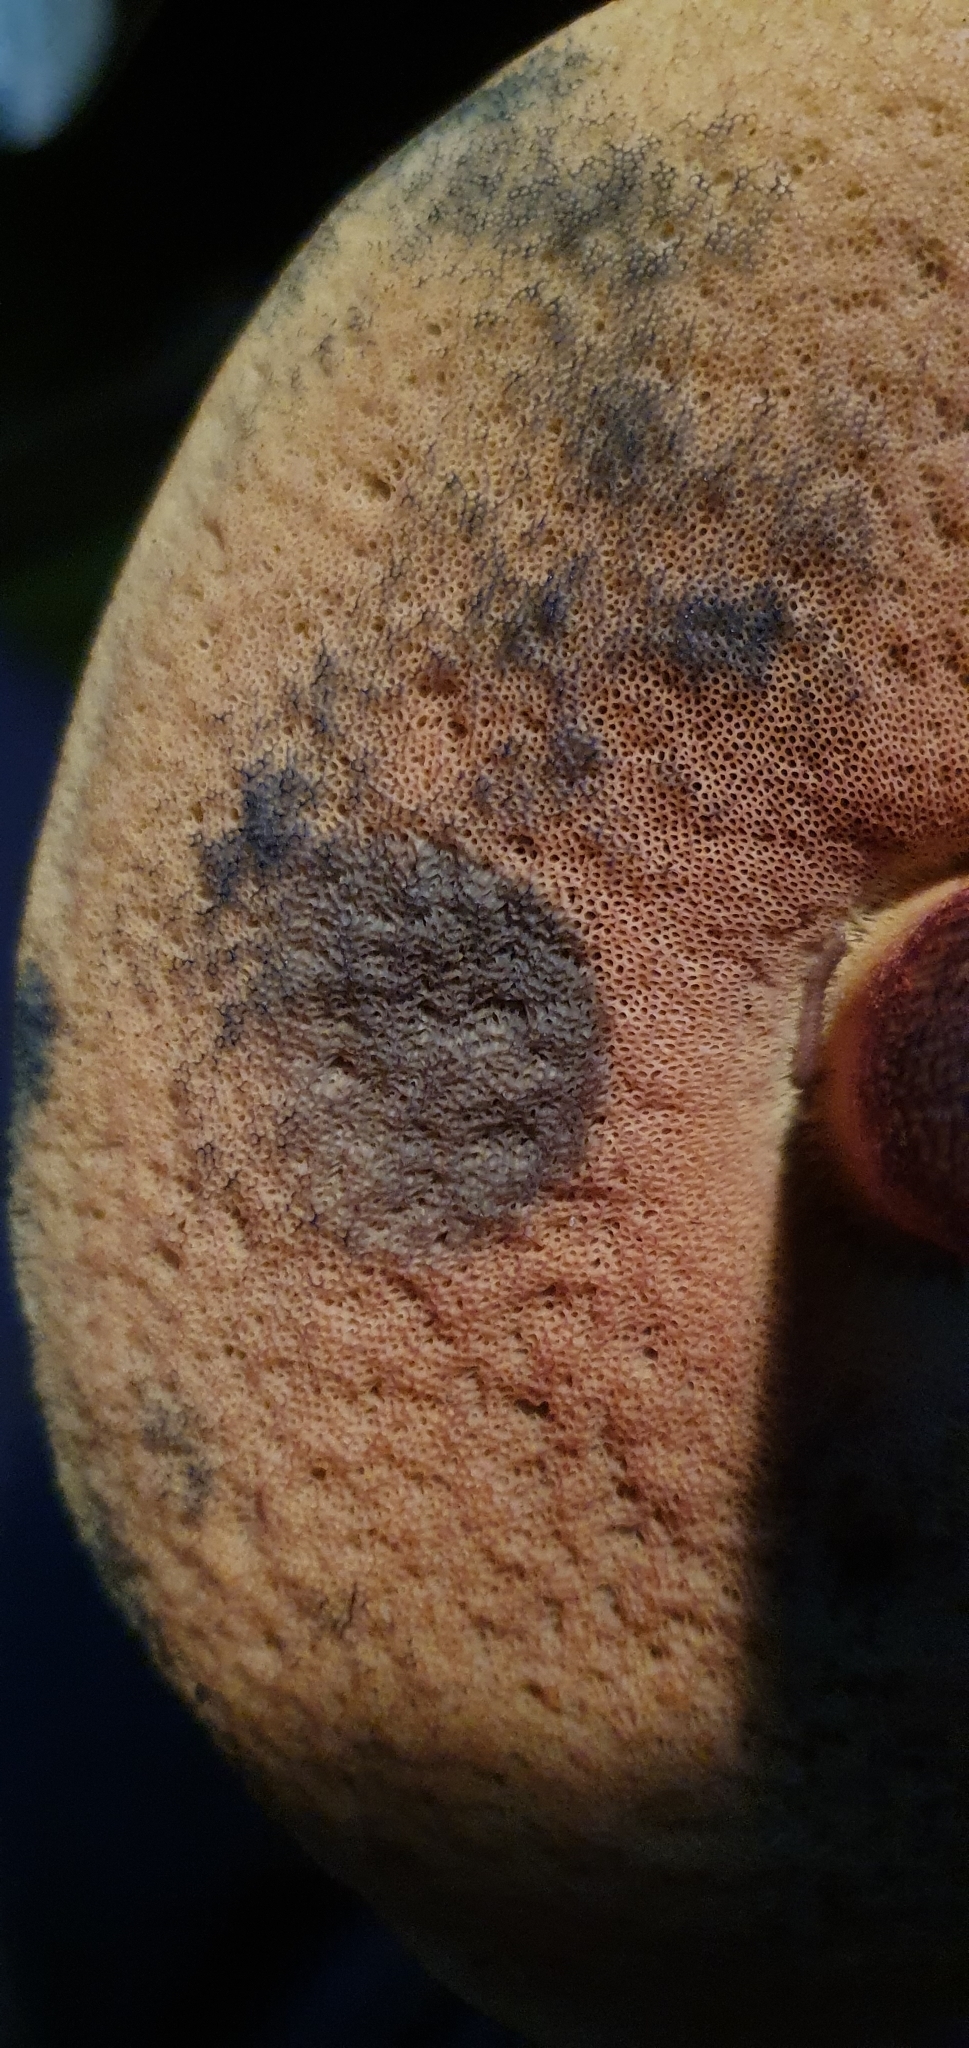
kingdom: Fungi
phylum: Basidiomycota
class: Agaricomycetes
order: Boletales
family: Boletaceae
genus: Suillellus
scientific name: Suillellus luridus
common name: Lurid bolete
